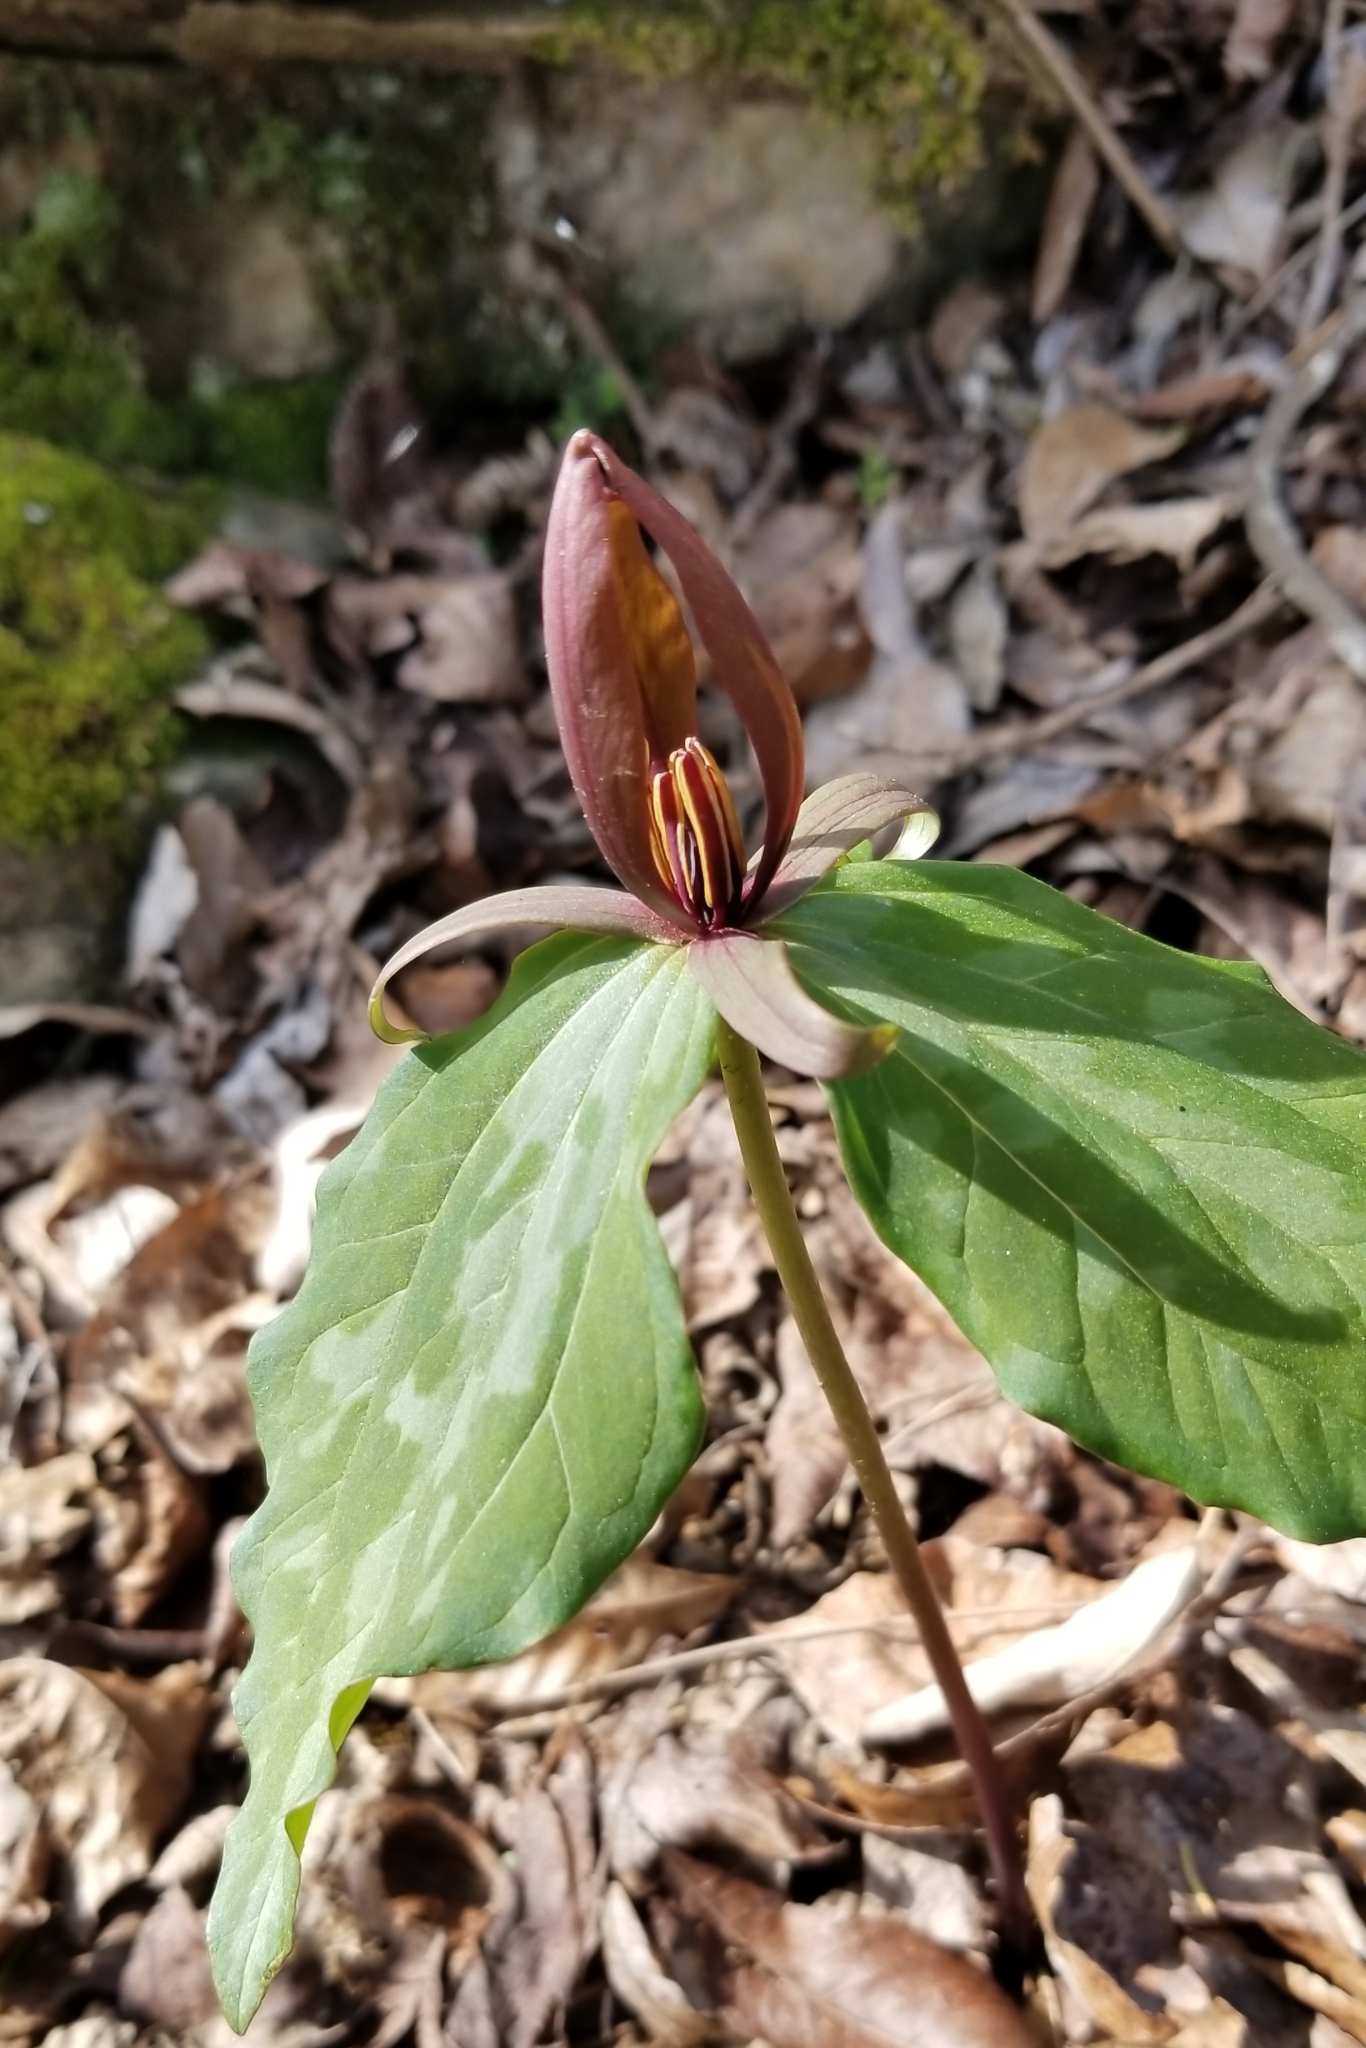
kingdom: Plantae
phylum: Tracheophyta
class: Liliopsida
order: Liliales
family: Melanthiaceae
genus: Trillium
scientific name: Trillium cuneatum
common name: Cuneate trillium
